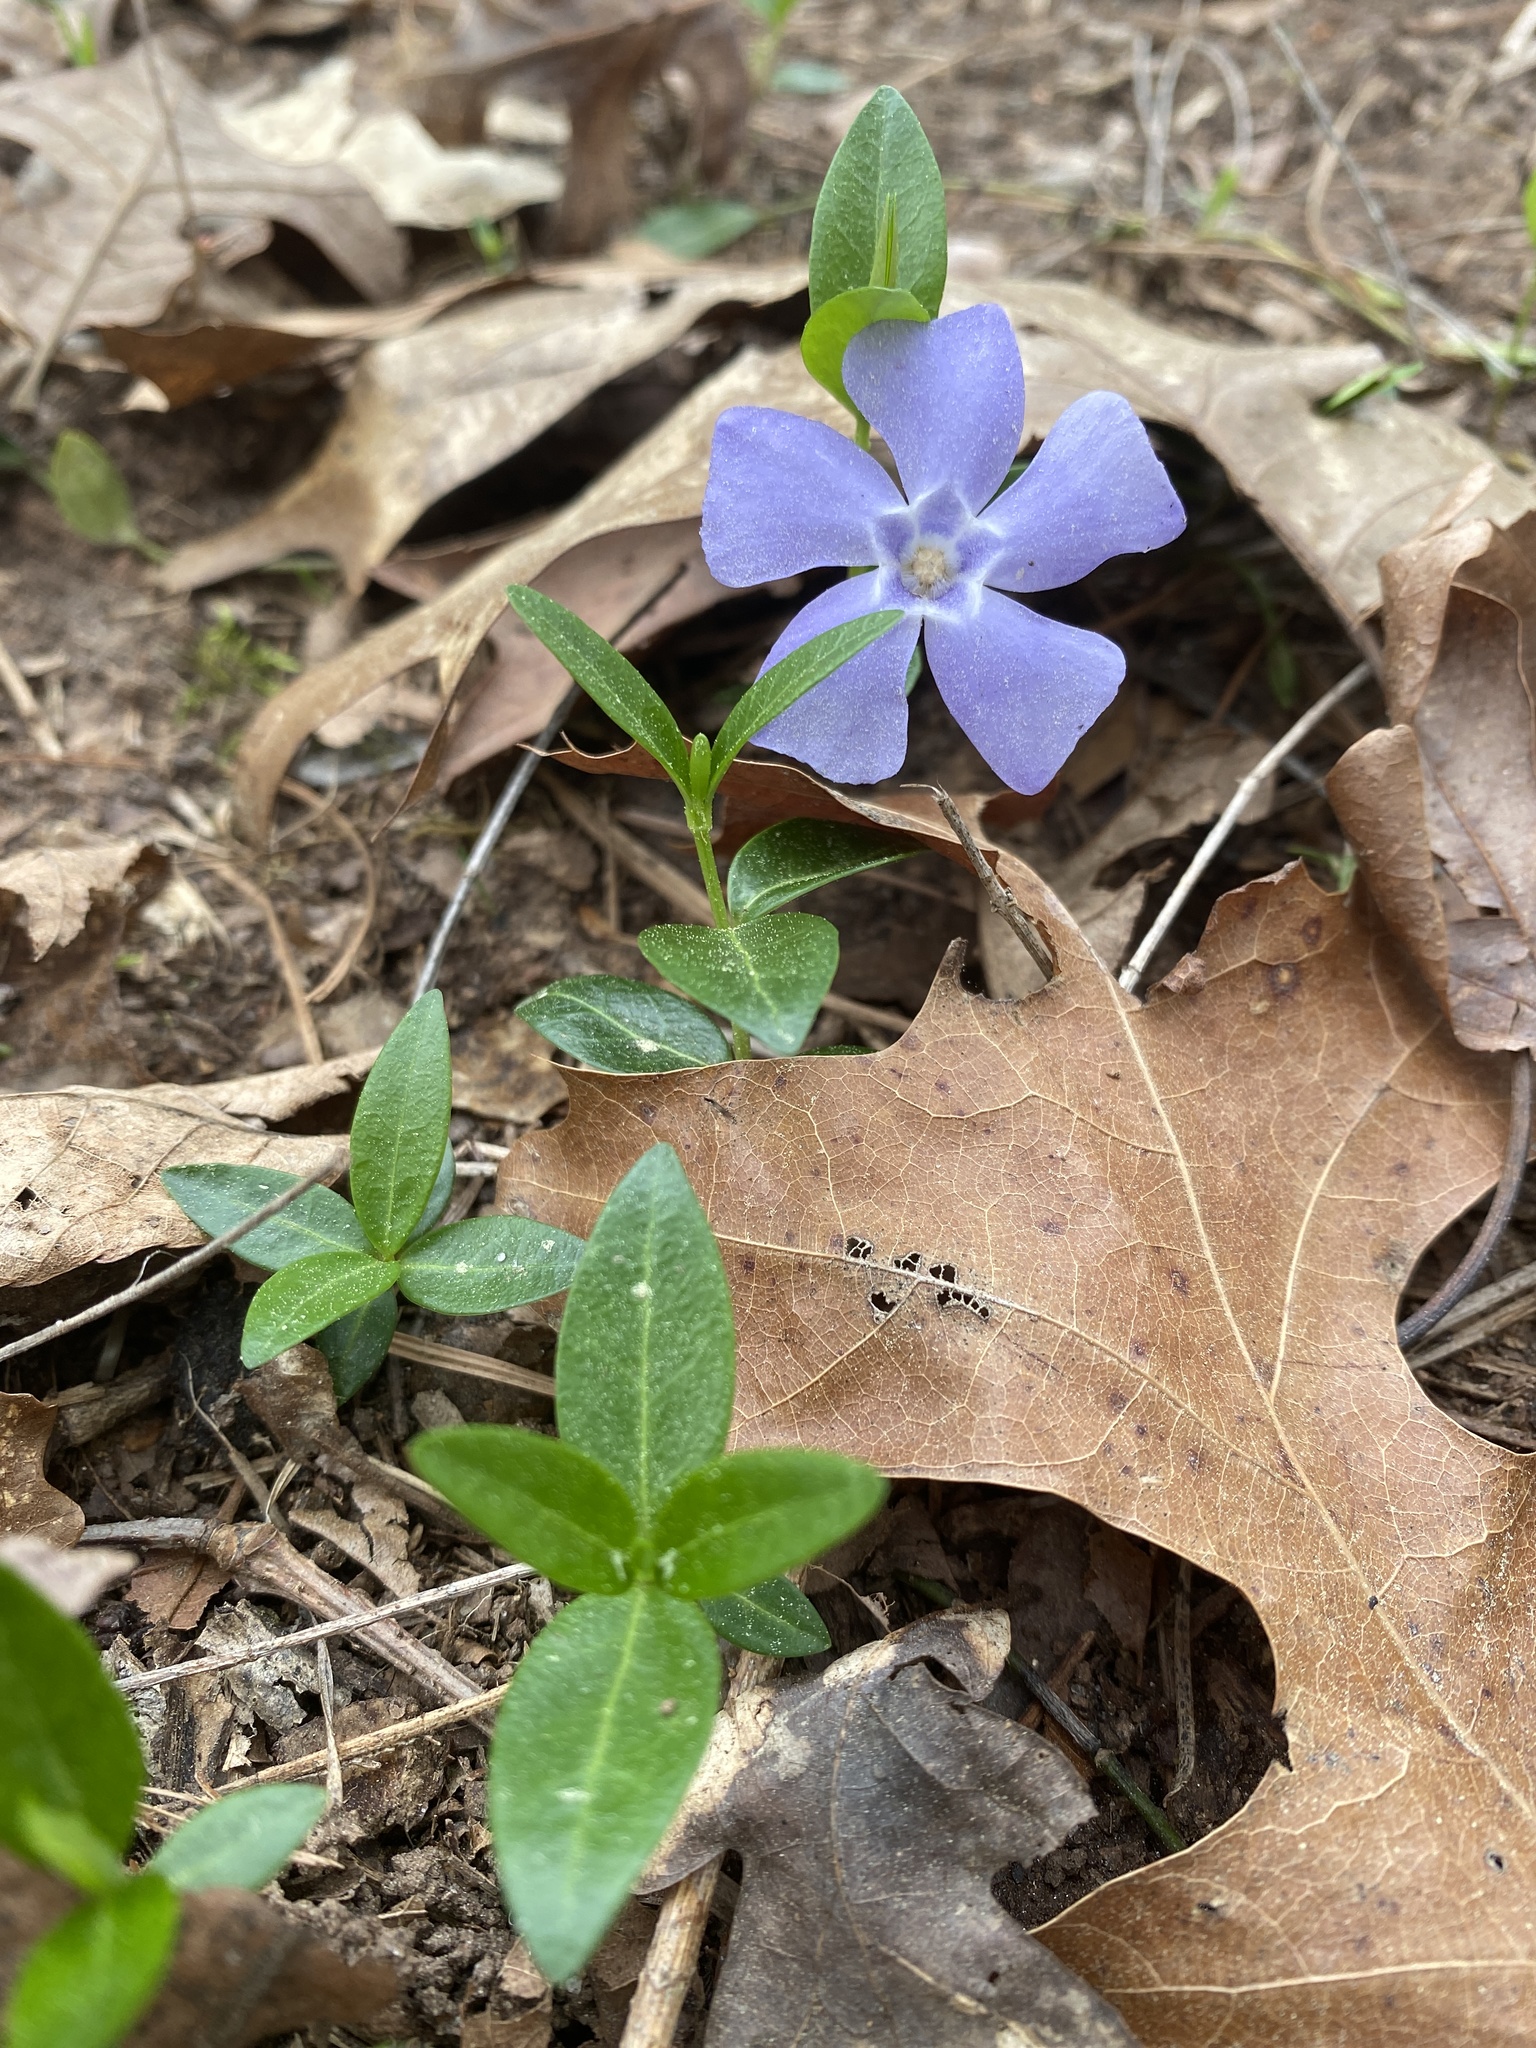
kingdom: Plantae
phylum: Tracheophyta
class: Magnoliopsida
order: Gentianales
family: Apocynaceae
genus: Vinca
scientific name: Vinca minor
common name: Lesser periwinkle
